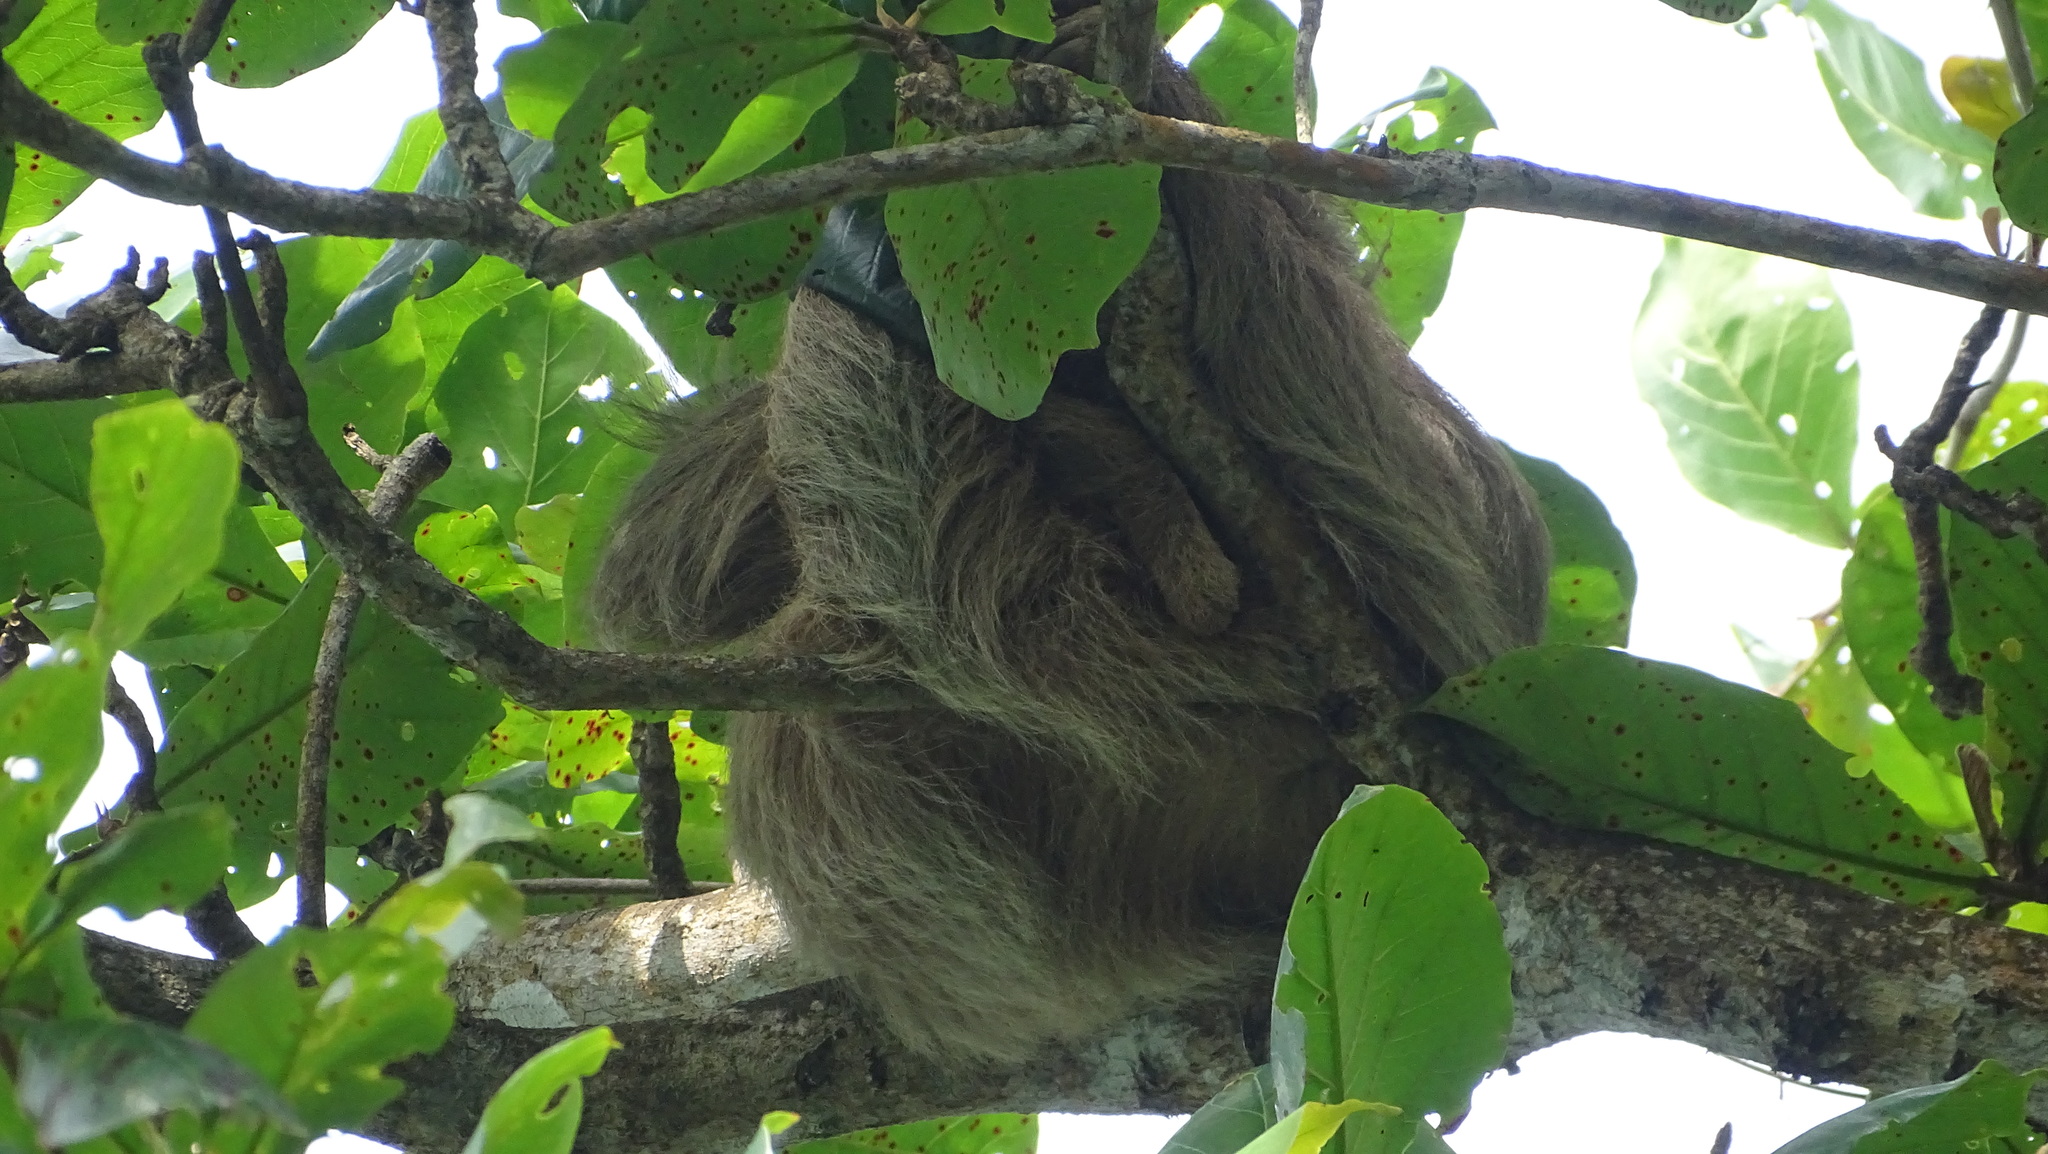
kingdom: Animalia
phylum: Chordata
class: Mammalia
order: Pilosa
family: Megalonychidae
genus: Choloepus
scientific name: Choloepus hoffmanni
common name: Hoffmann's two-toed sloth
